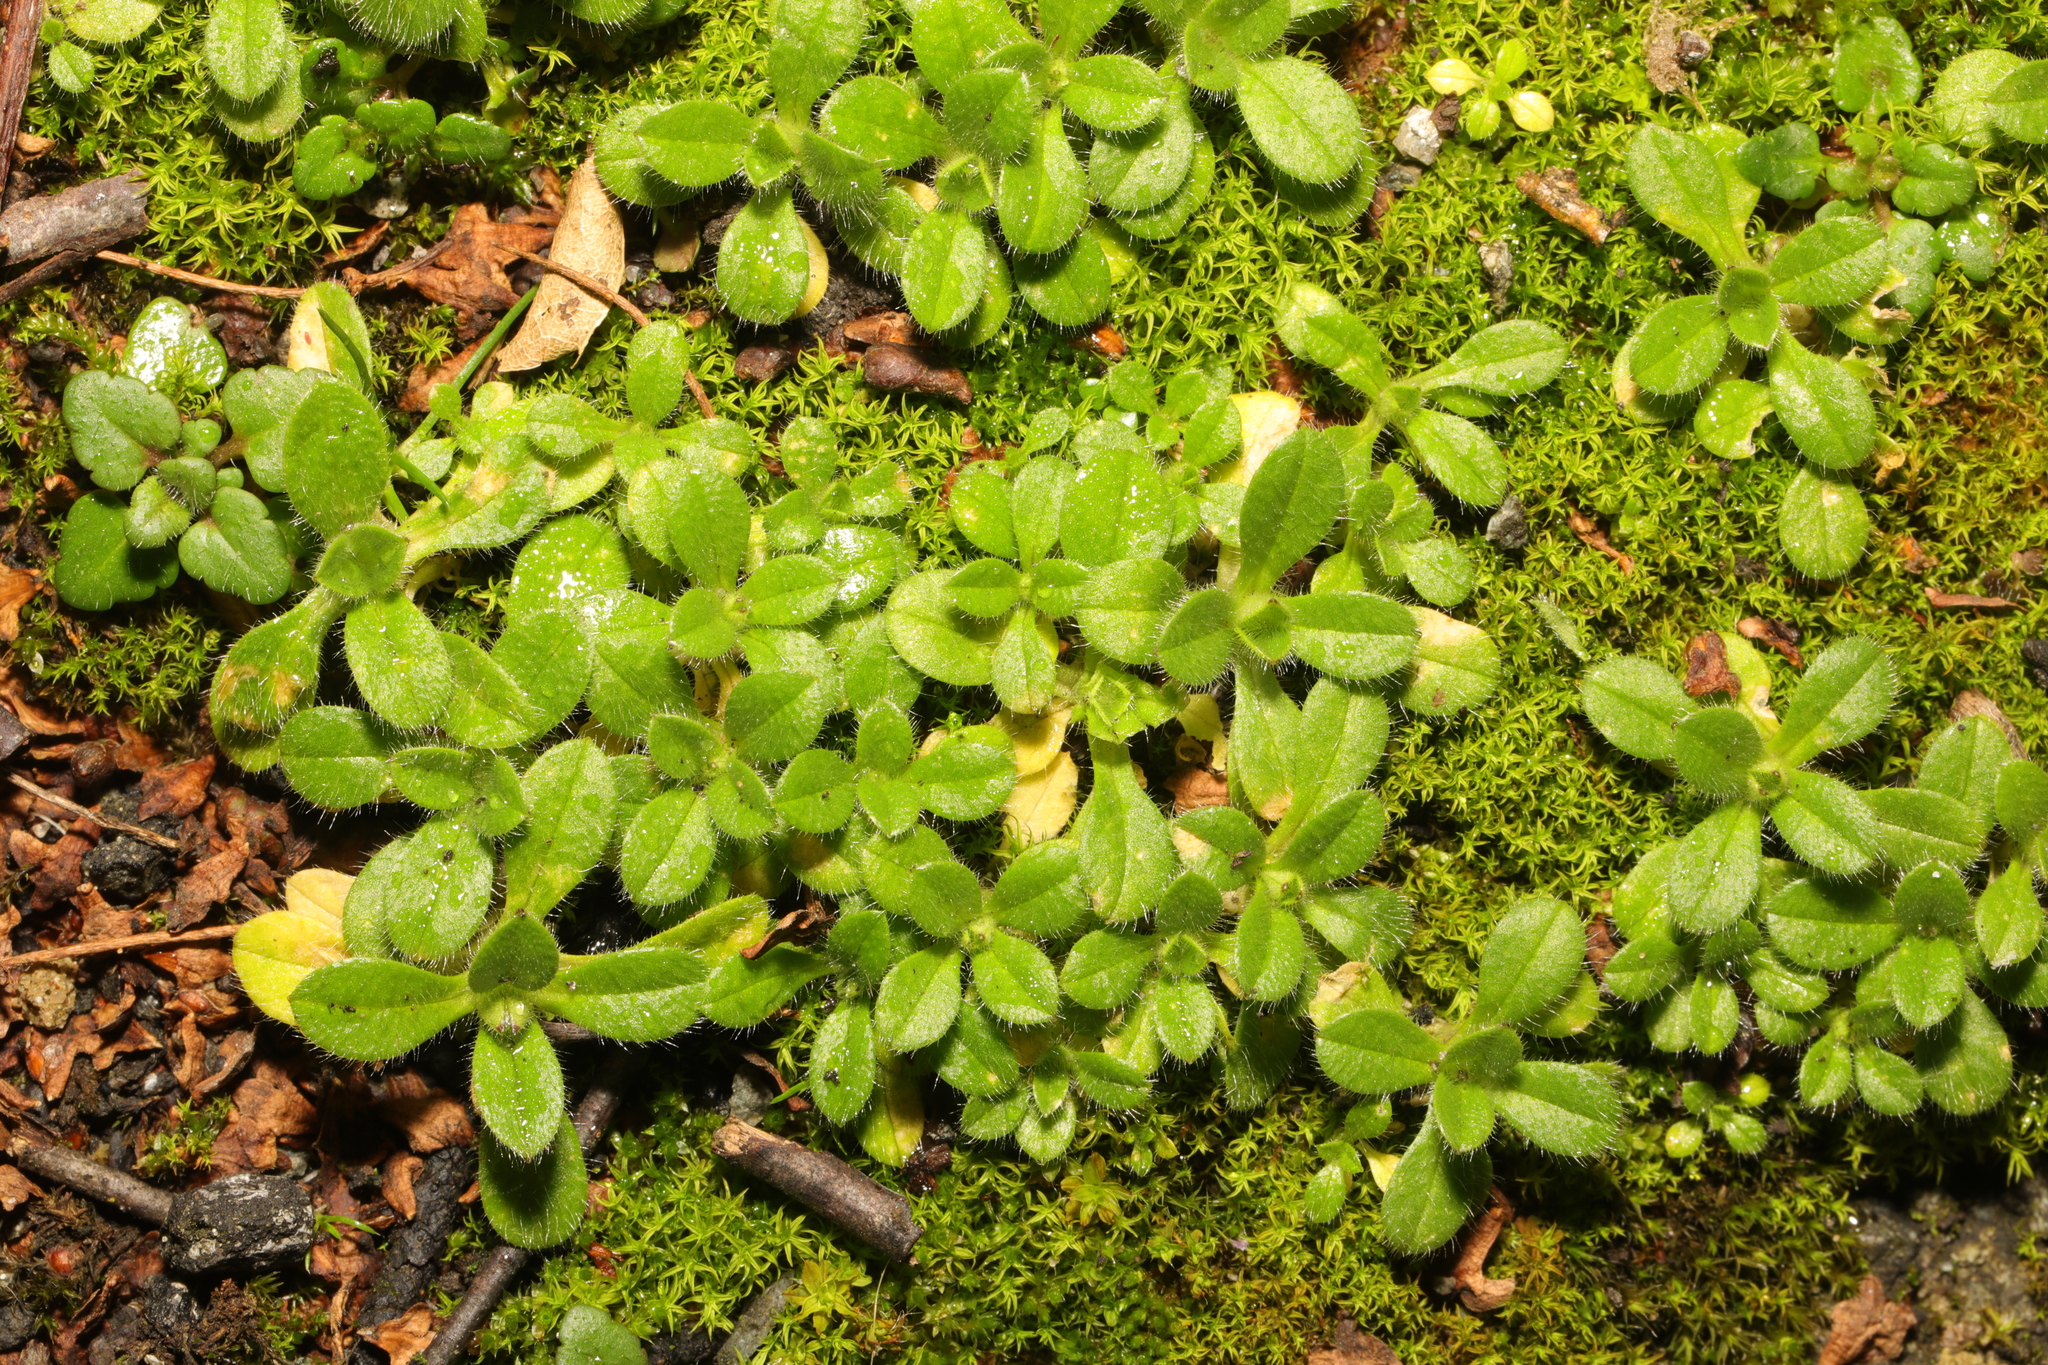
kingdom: Plantae
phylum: Tracheophyta
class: Magnoliopsida
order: Caryophyllales
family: Caryophyllaceae
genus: Cerastium
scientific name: Cerastium glomeratum
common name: Sticky chickweed
